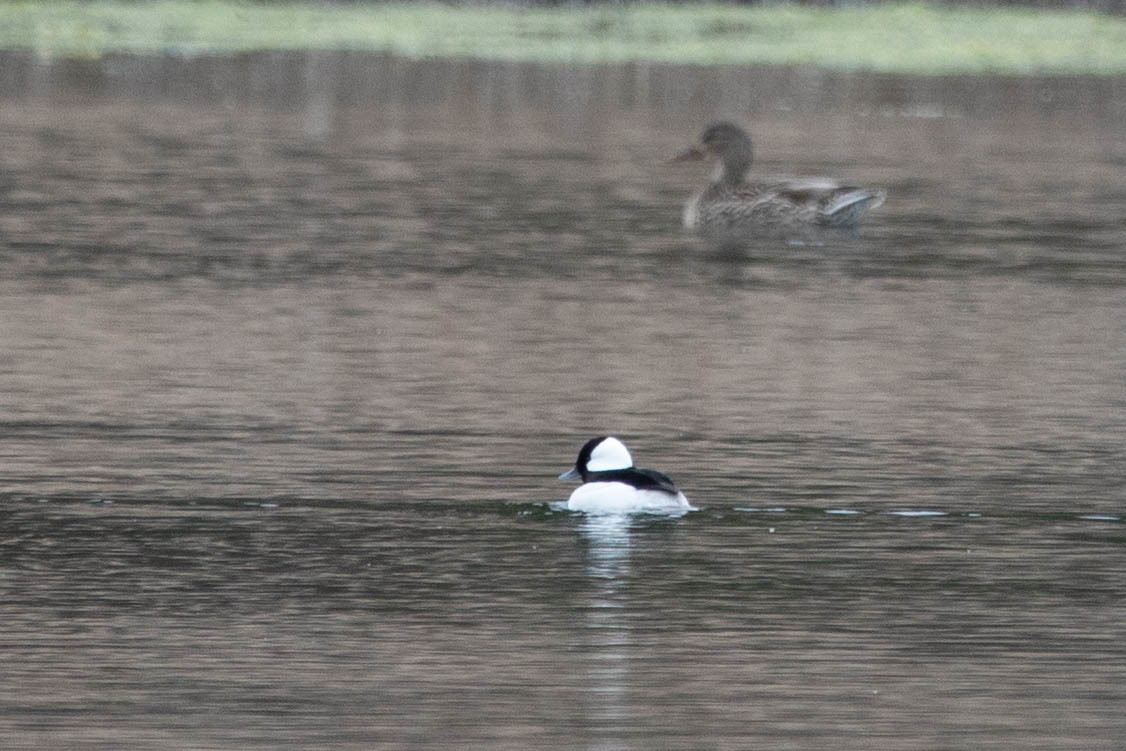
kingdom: Animalia
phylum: Chordata
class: Aves
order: Anseriformes
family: Anatidae
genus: Bucephala
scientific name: Bucephala albeola
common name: Bufflehead
